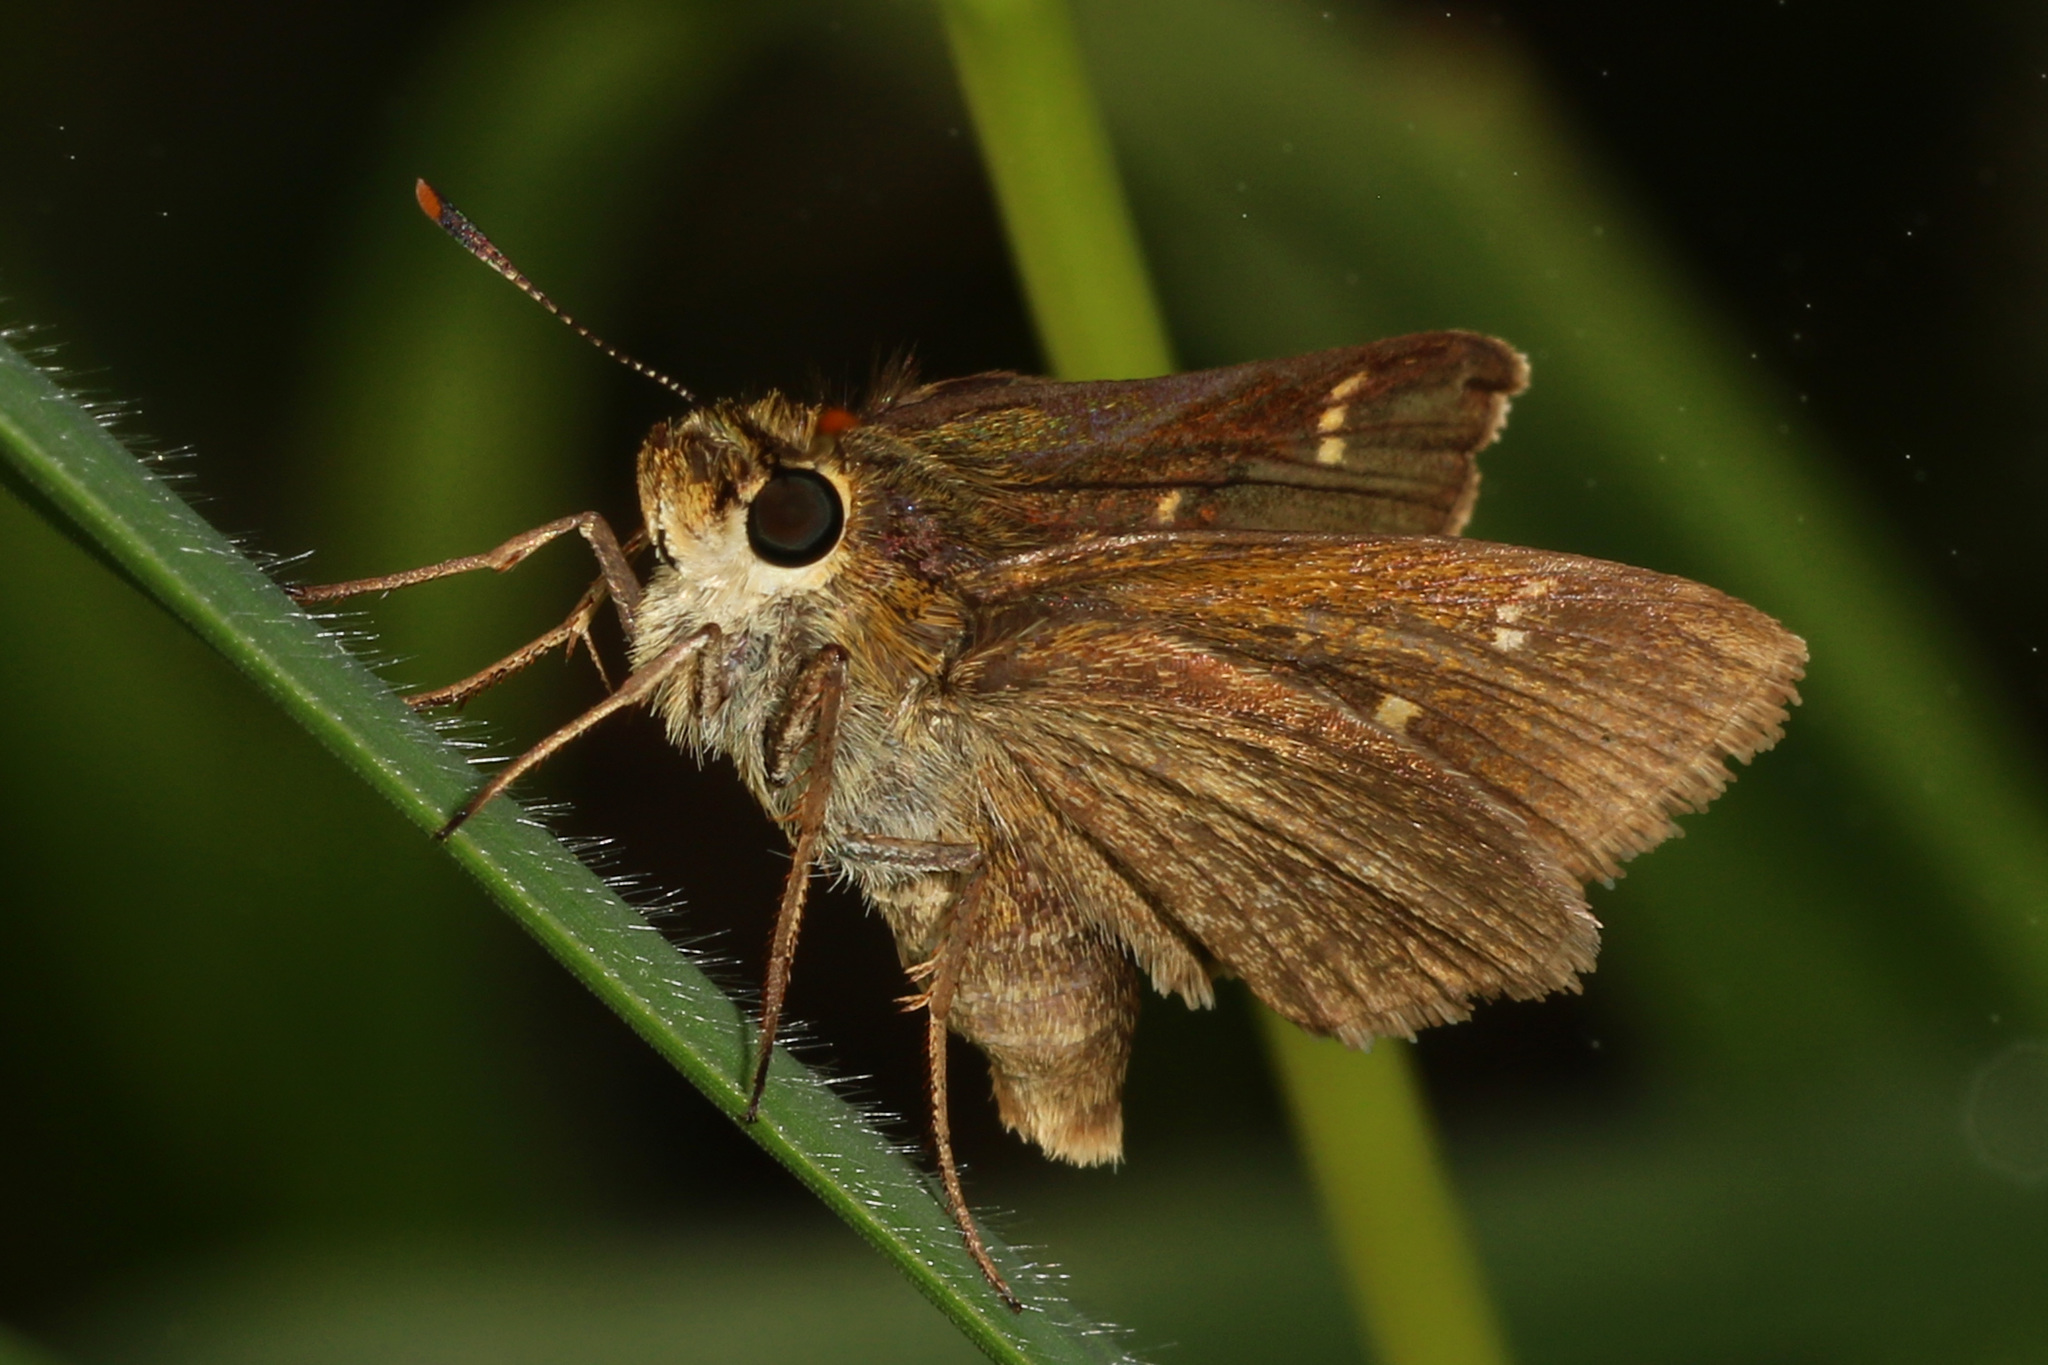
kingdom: Animalia
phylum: Arthropoda
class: Insecta
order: Lepidoptera
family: Hesperiidae
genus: Vernia
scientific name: Vernia verna
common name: Little glassywing
